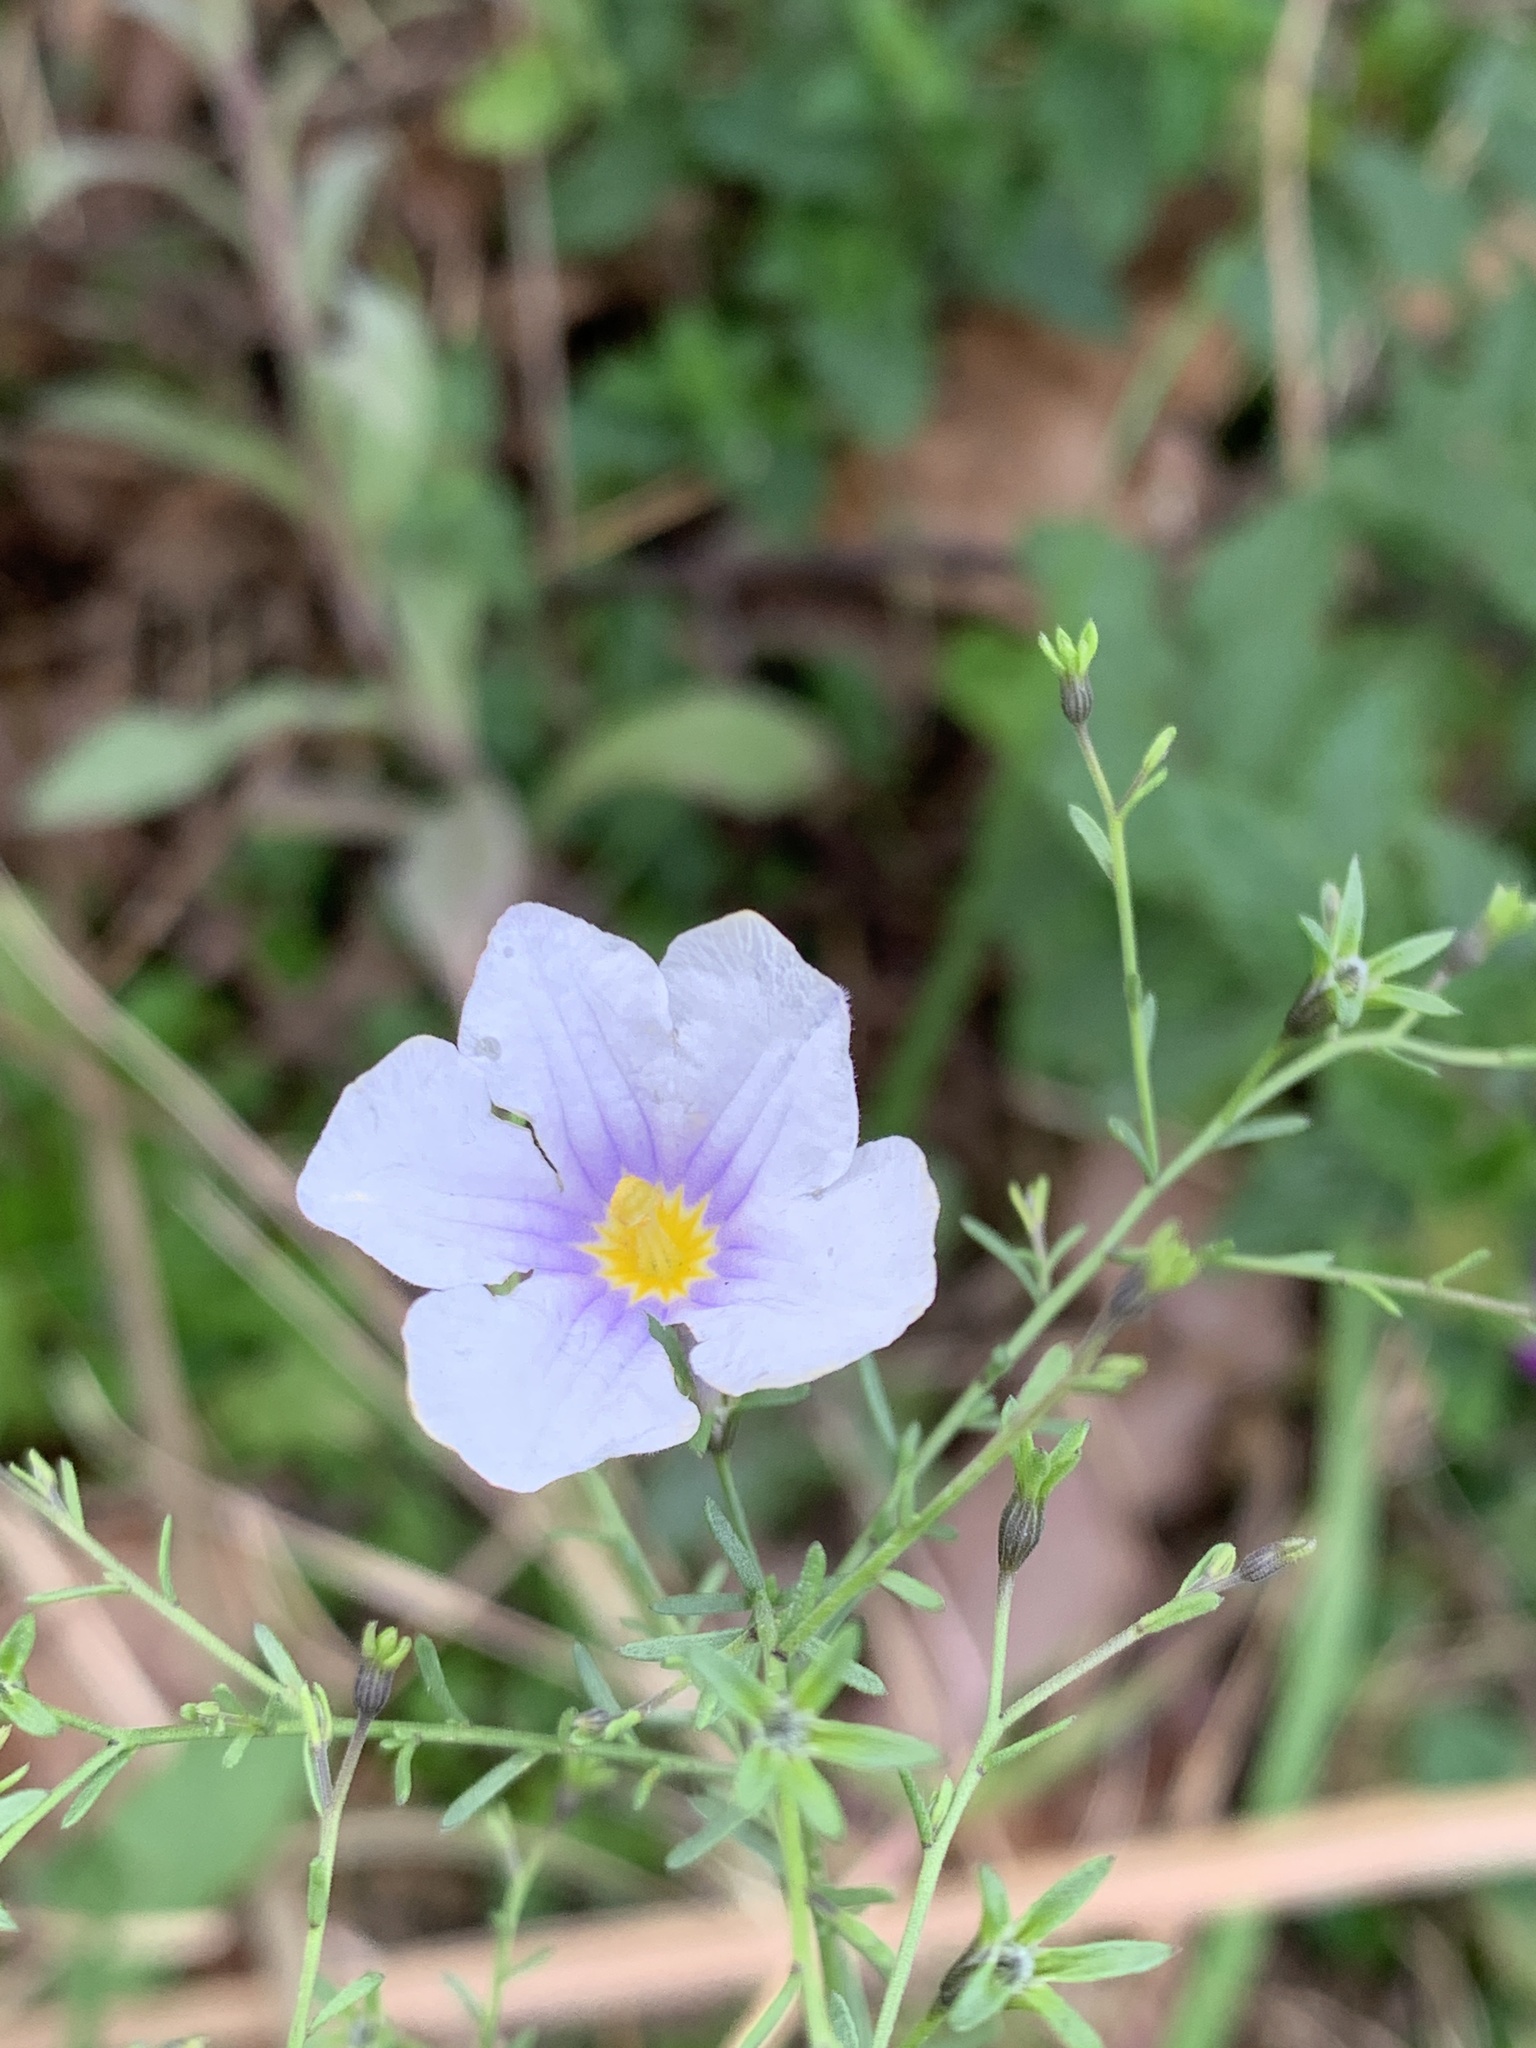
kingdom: Plantae
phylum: Tracheophyta
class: Magnoliopsida
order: Solanales
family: Solanaceae
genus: Nierembergia
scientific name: Nierembergia linariifolia
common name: Dwarf cupflower
